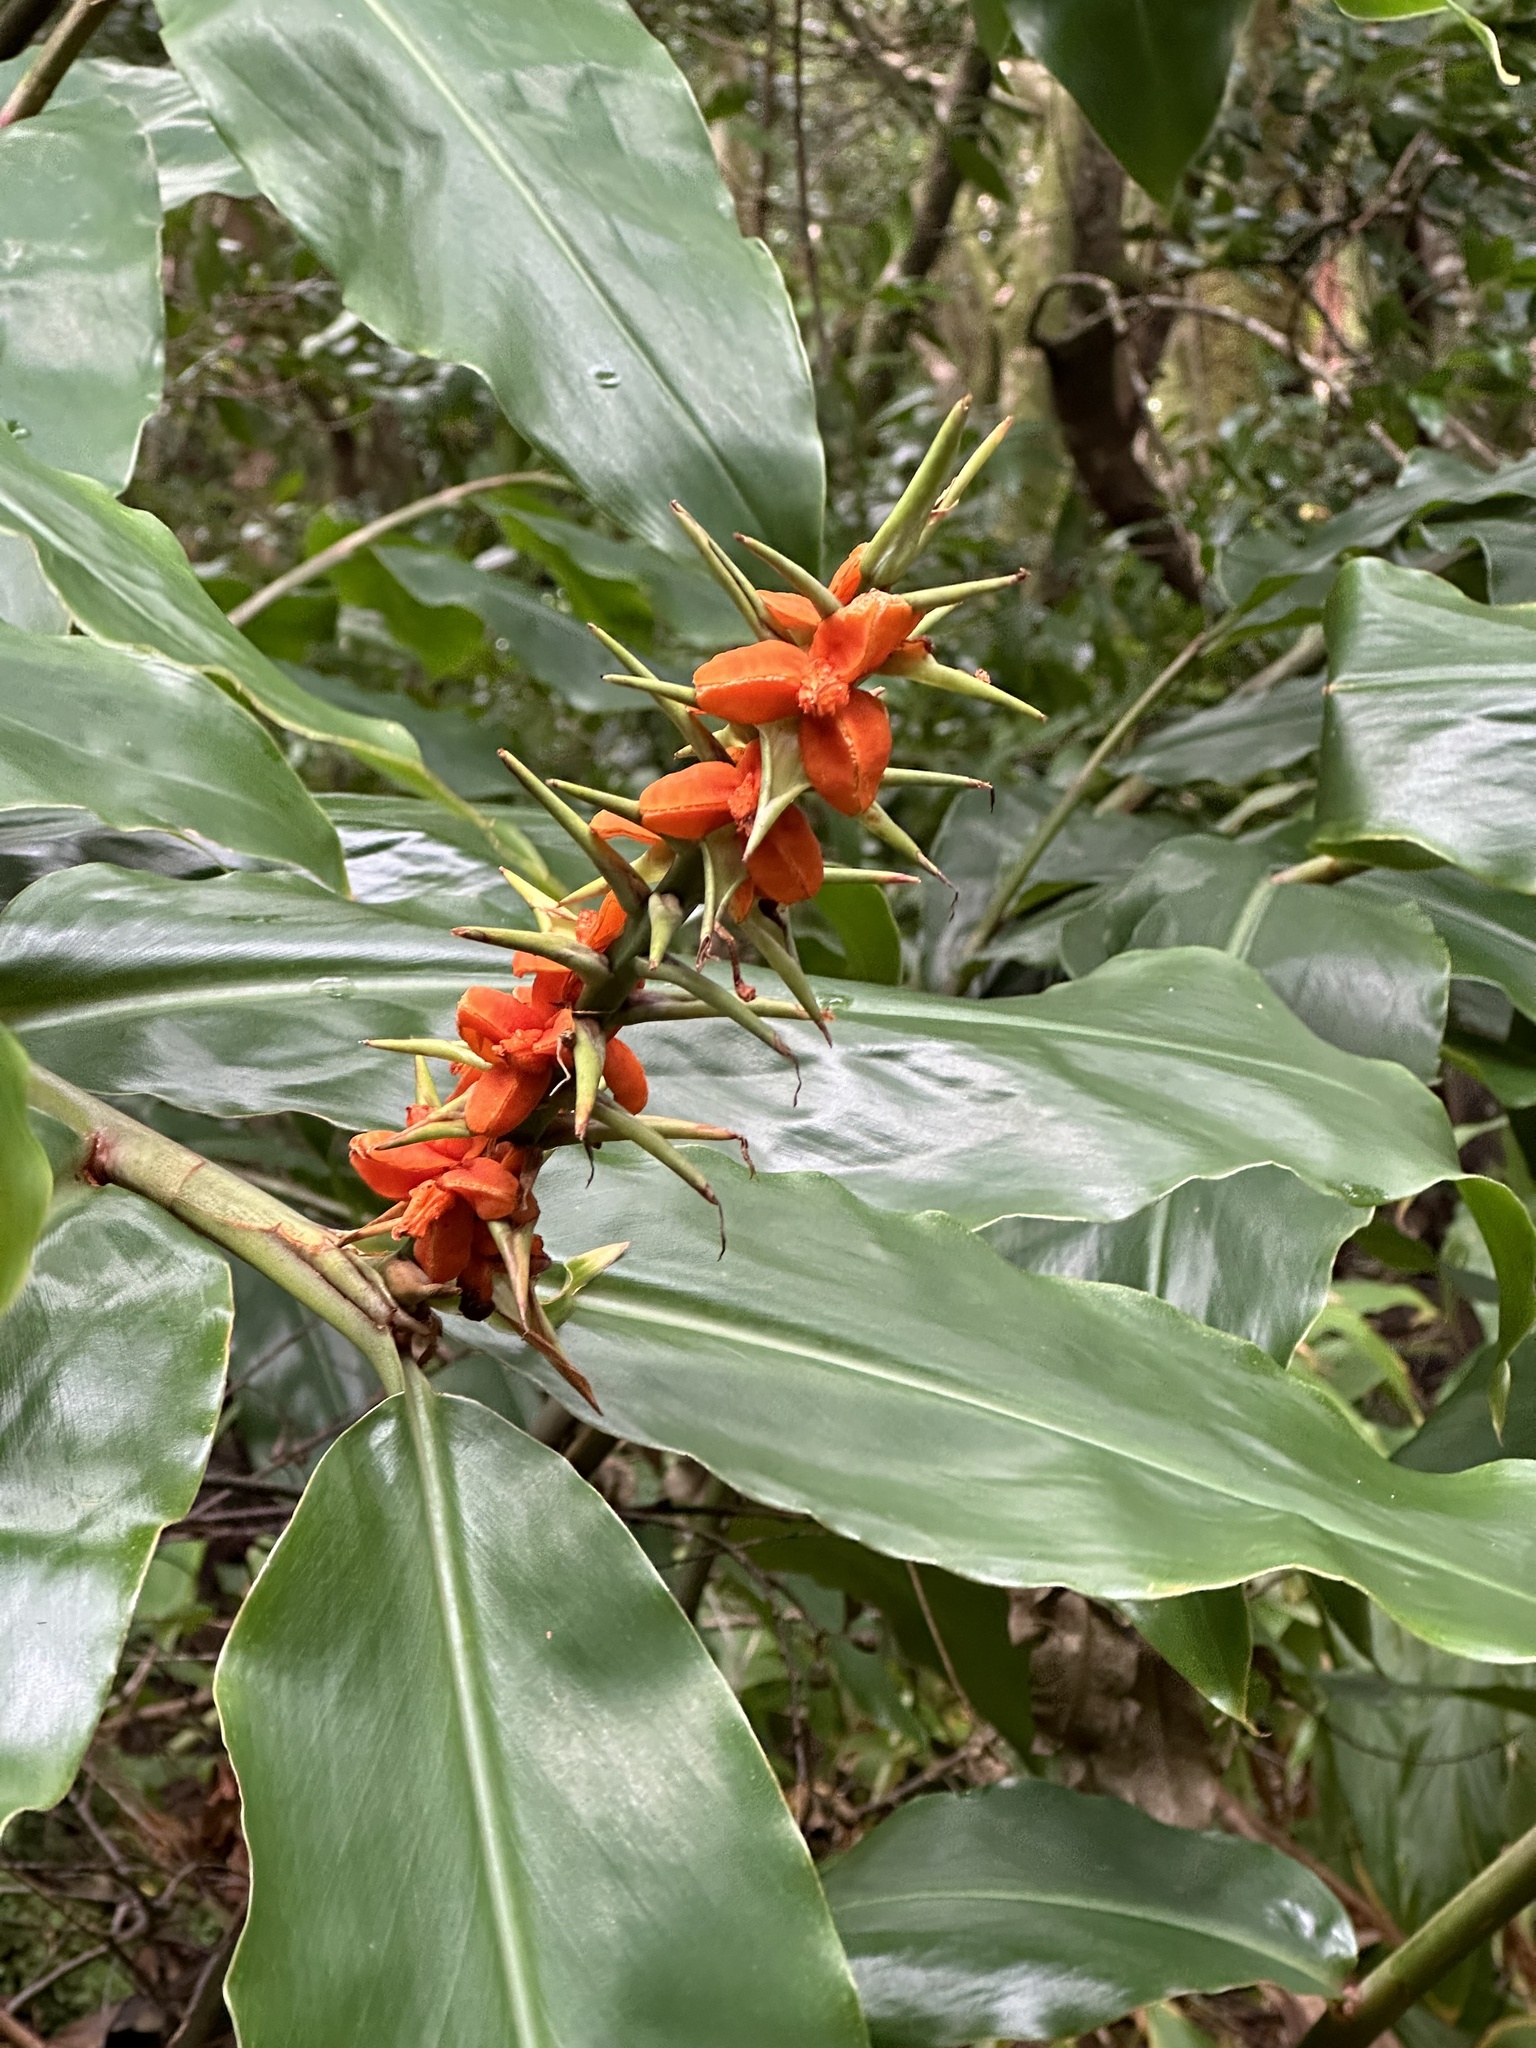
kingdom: Plantae
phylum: Tracheophyta
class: Liliopsida
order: Zingiberales
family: Zingiberaceae
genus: Hedychium
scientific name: Hedychium gardnerianum
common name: Himalayan ginger
